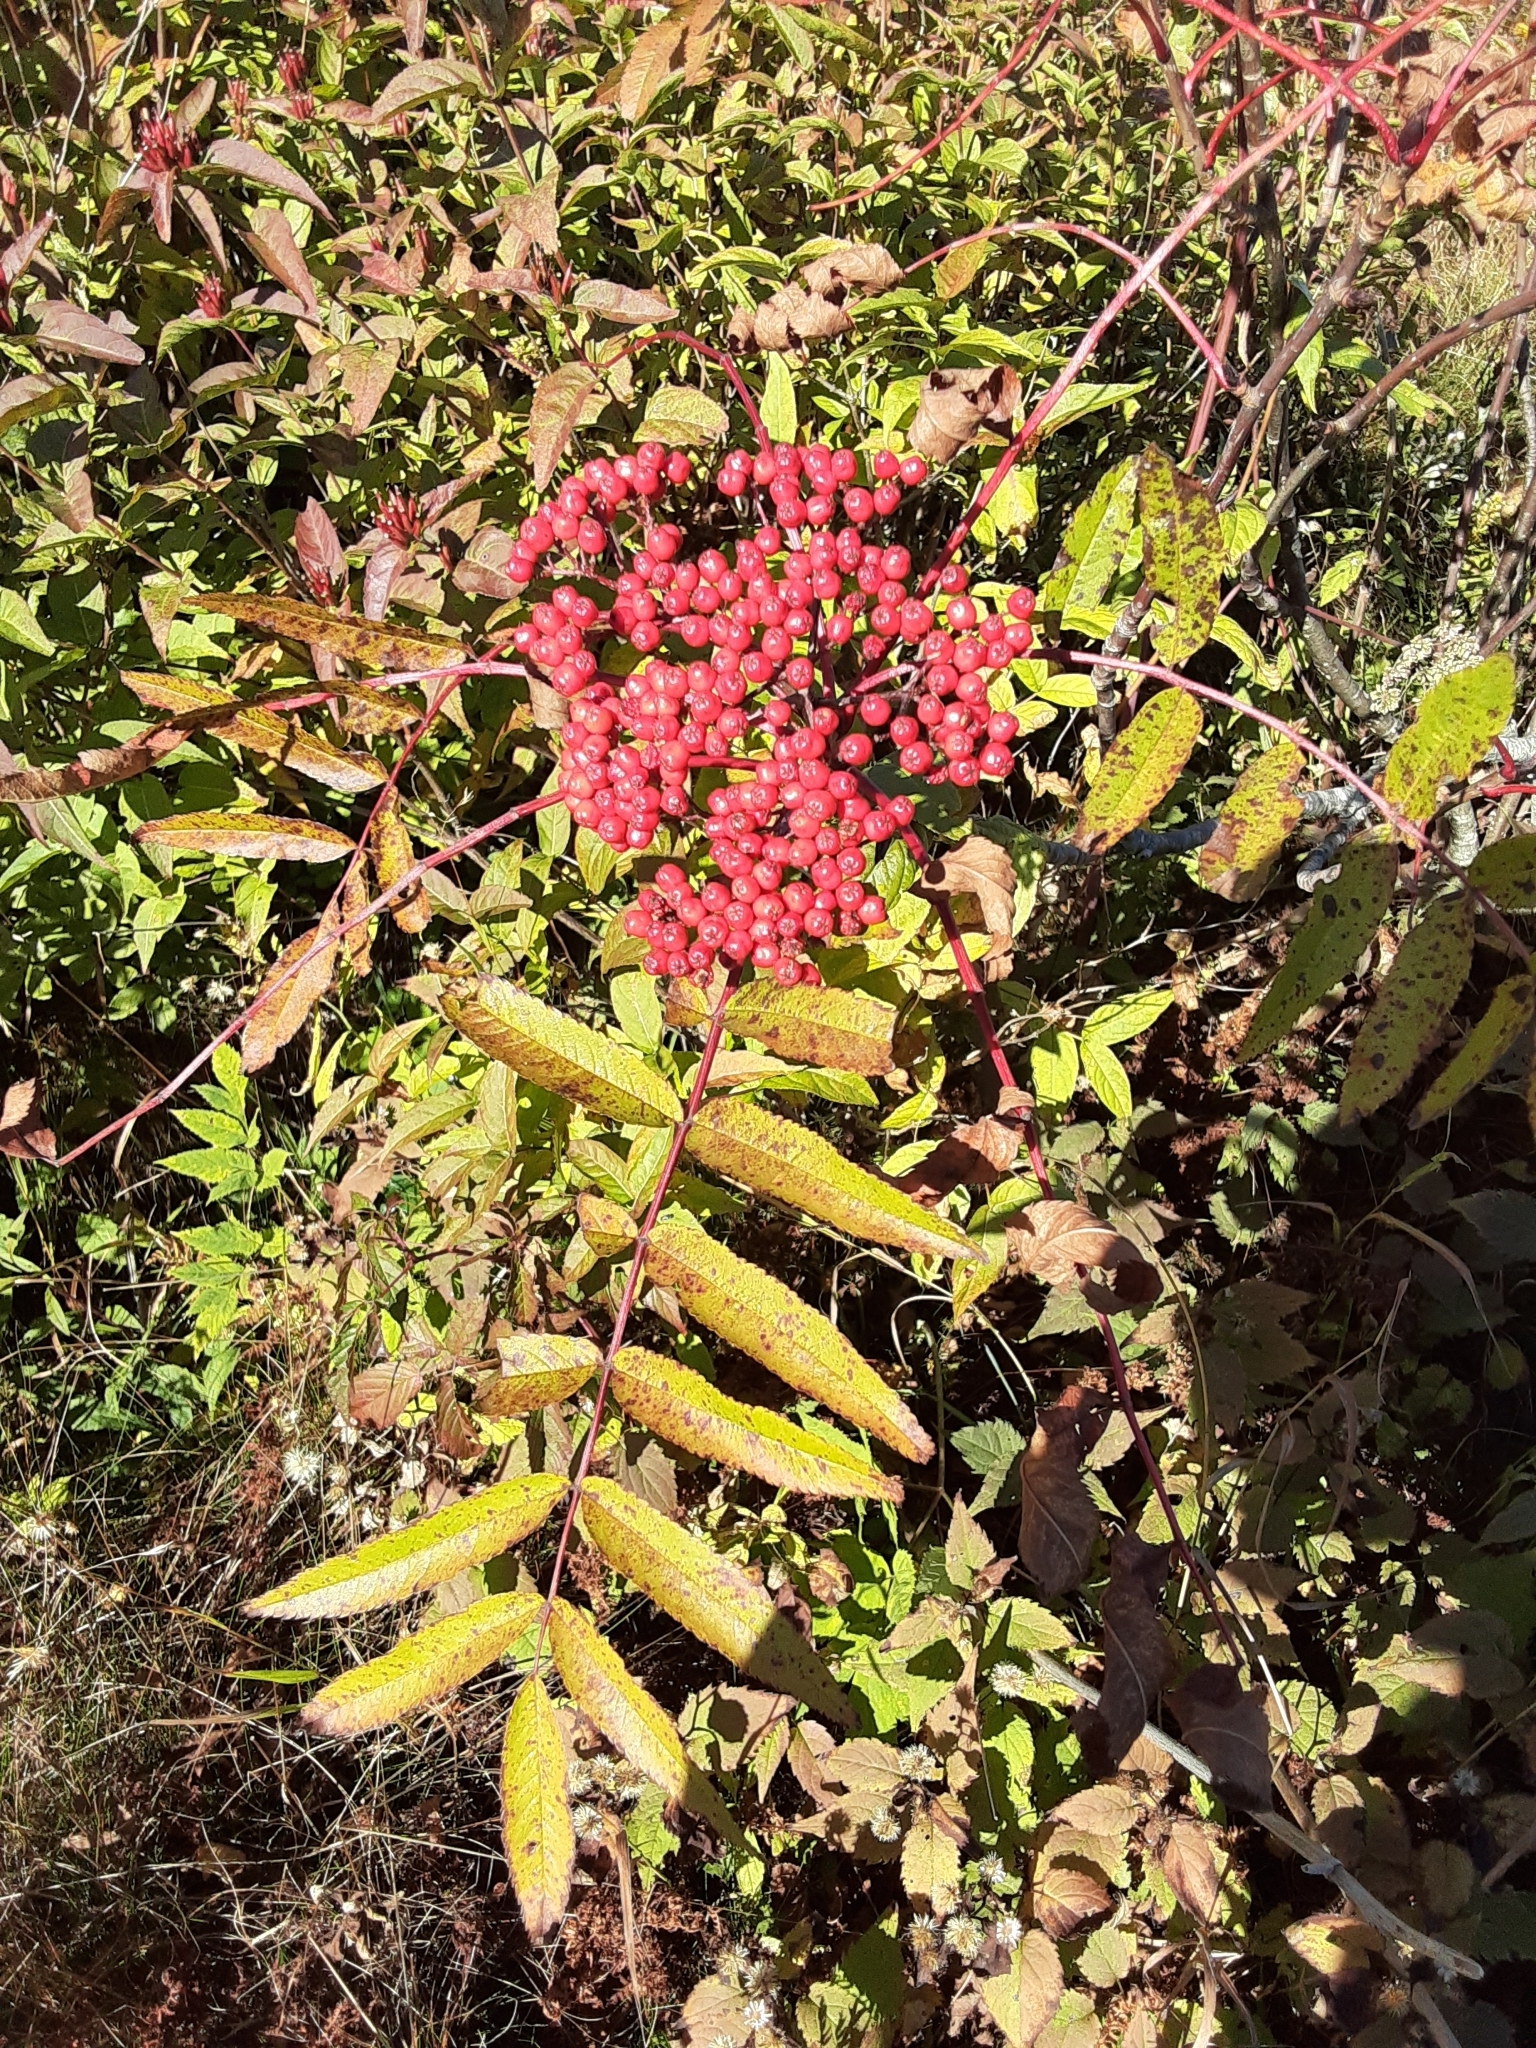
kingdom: Plantae
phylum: Tracheophyta
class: Magnoliopsida
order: Rosales
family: Rosaceae
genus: Sorbus
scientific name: Sorbus americana
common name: American mountain-ash
